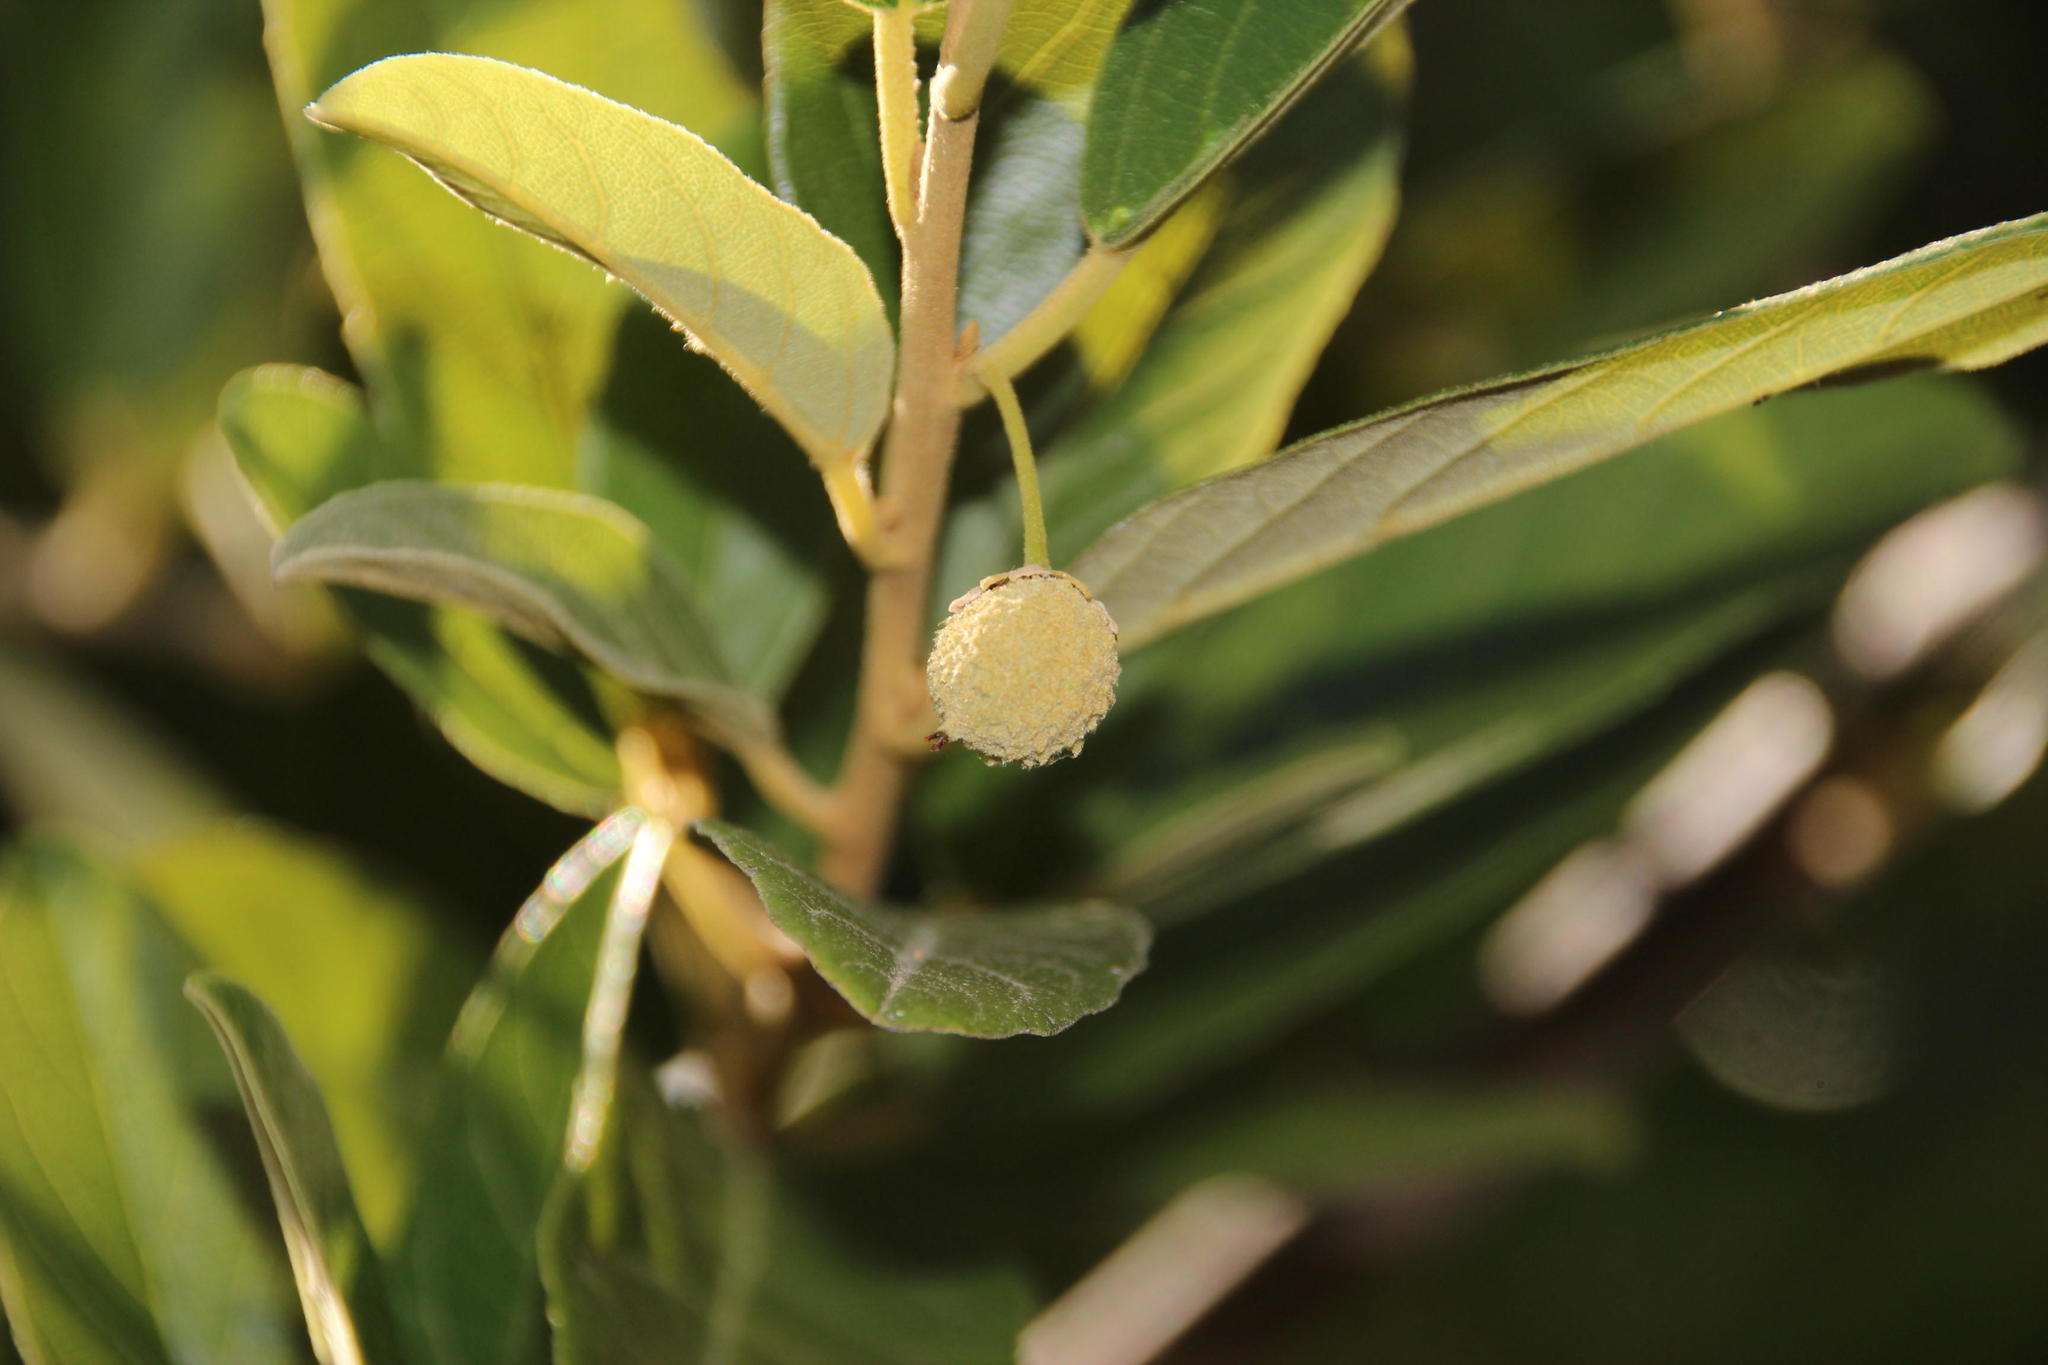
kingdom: Plantae
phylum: Tracheophyta
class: Magnoliopsida
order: Malpighiales
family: Achariaceae
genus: Kiggelaria
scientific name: Kiggelaria africana
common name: Wild peach
